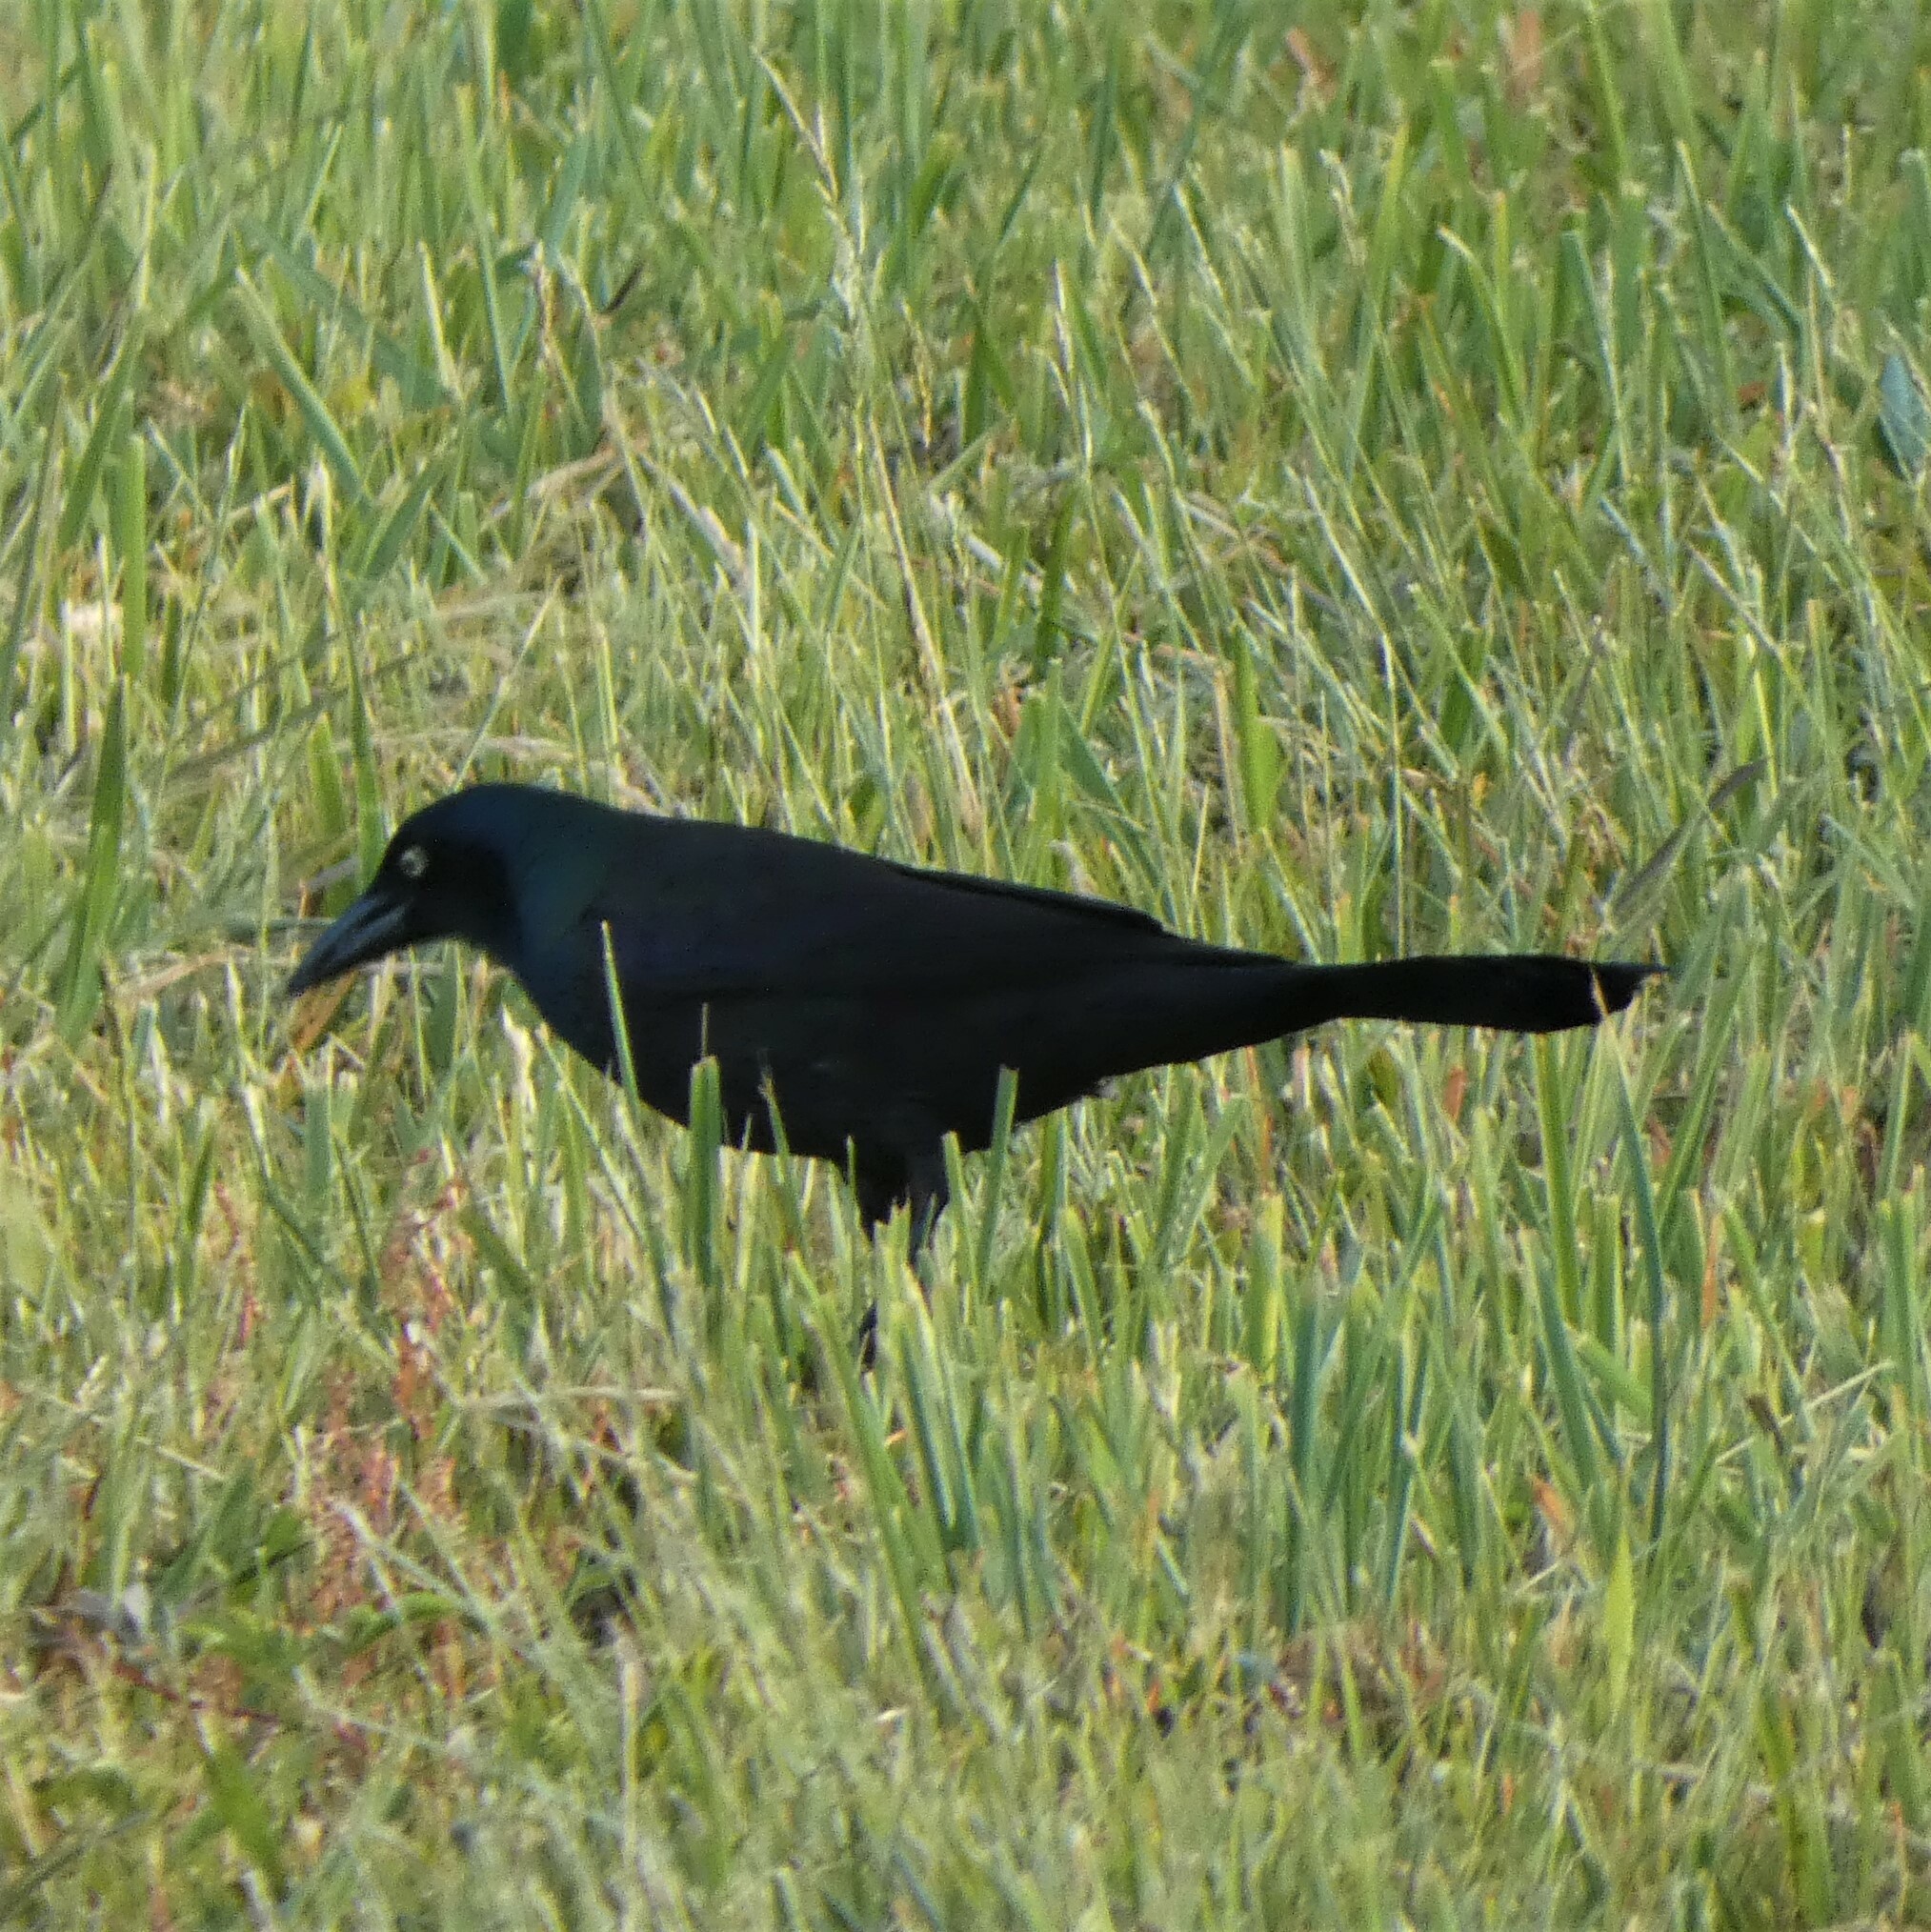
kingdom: Animalia
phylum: Chordata
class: Aves
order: Passeriformes
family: Icteridae
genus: Quiscalus
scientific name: Quiscalus quiscula
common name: Common grackle
